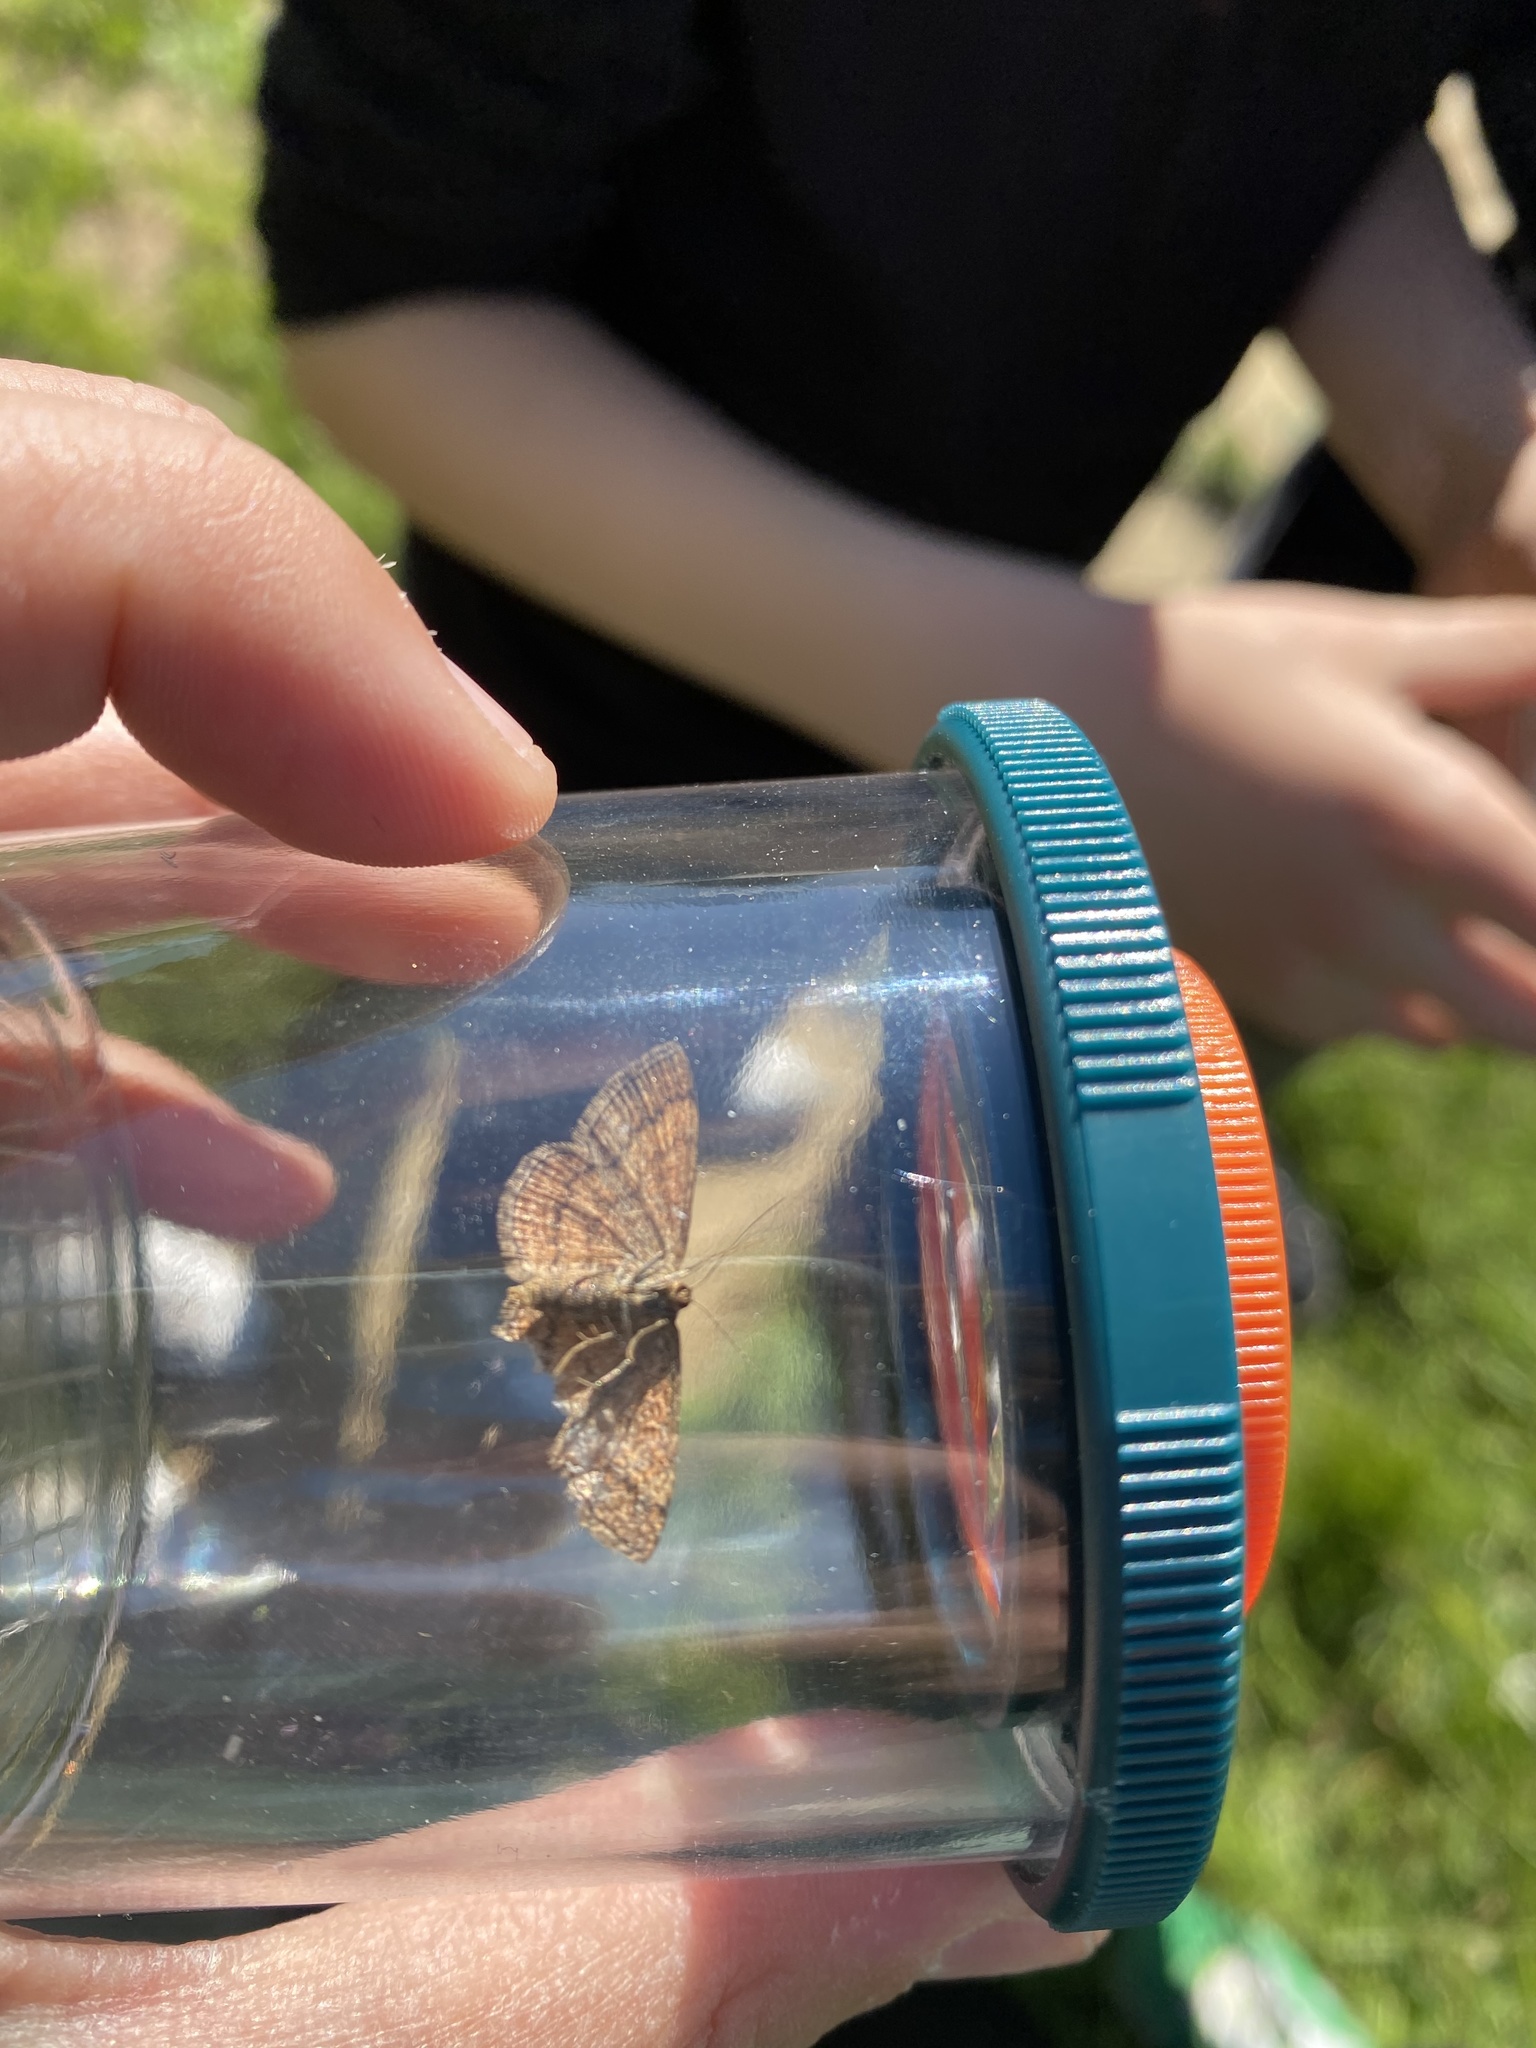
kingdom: Animalia
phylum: Arthropoda
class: Insecta
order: Lepidoptera
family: Geometridae
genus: Scopula
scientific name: Scopula rubiginata
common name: Tawny wave
